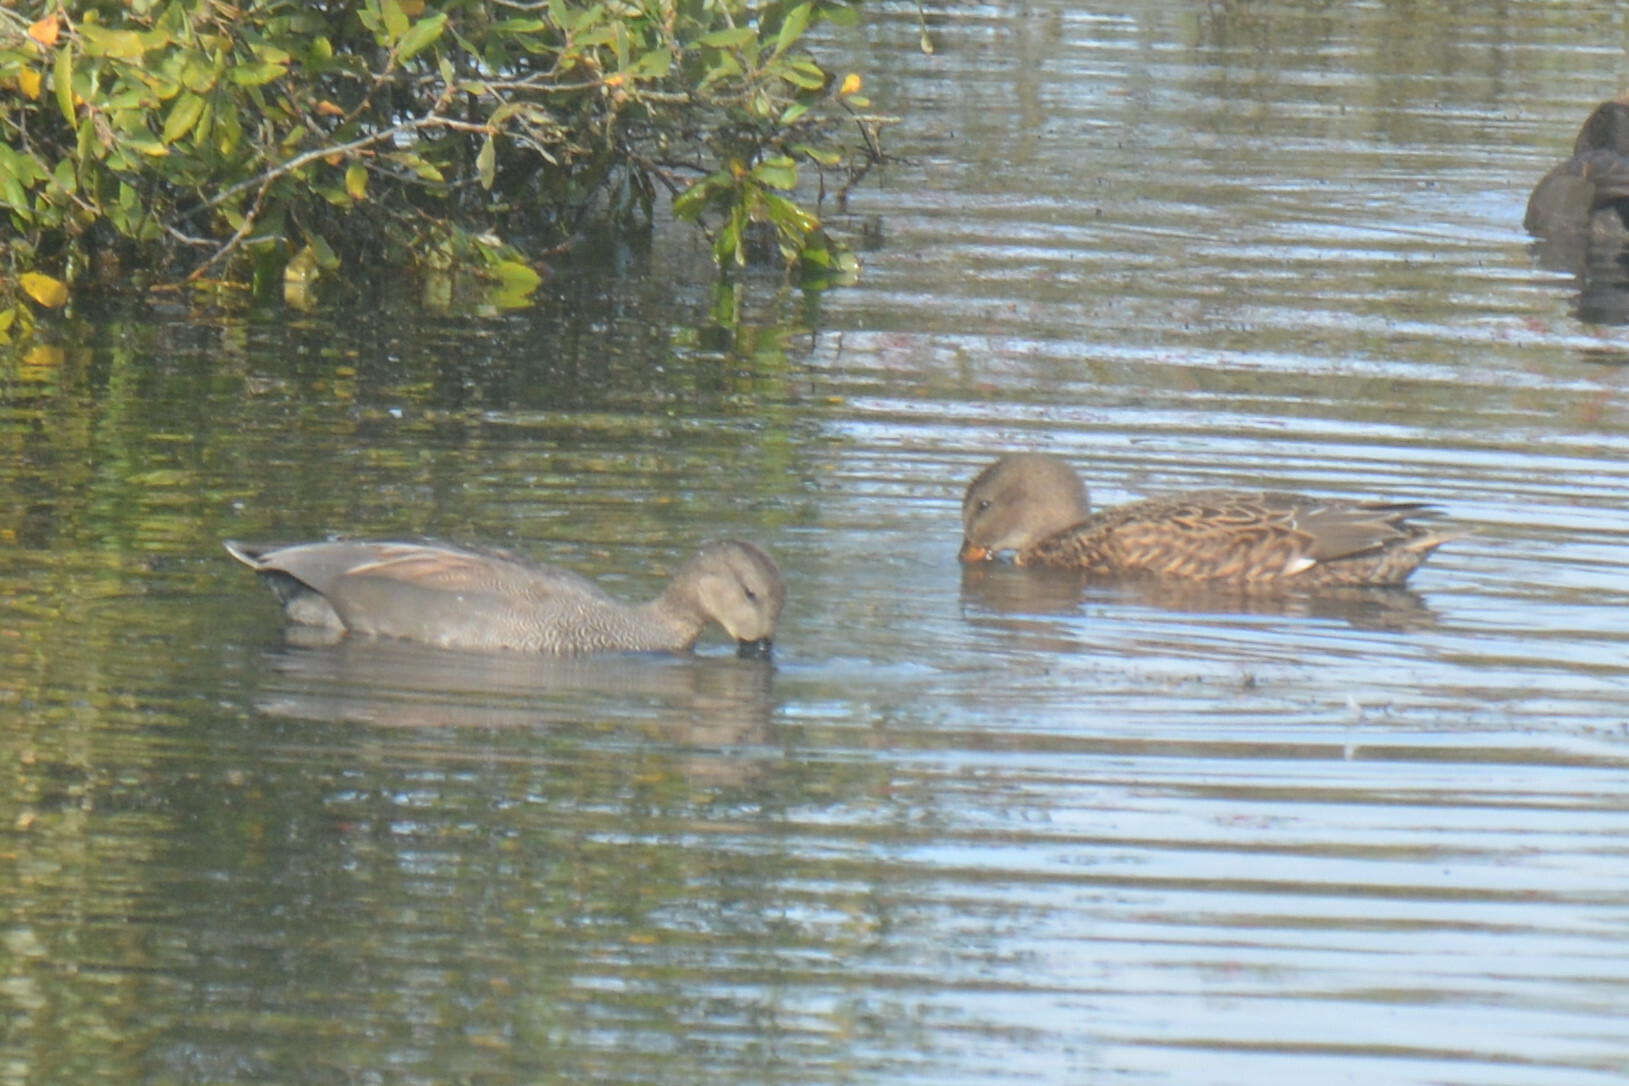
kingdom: Animalia
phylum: Chordata
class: Aves
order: Anseriformes
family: Anatidae
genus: Mareca
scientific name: Mareca strepera
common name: Gadwall
